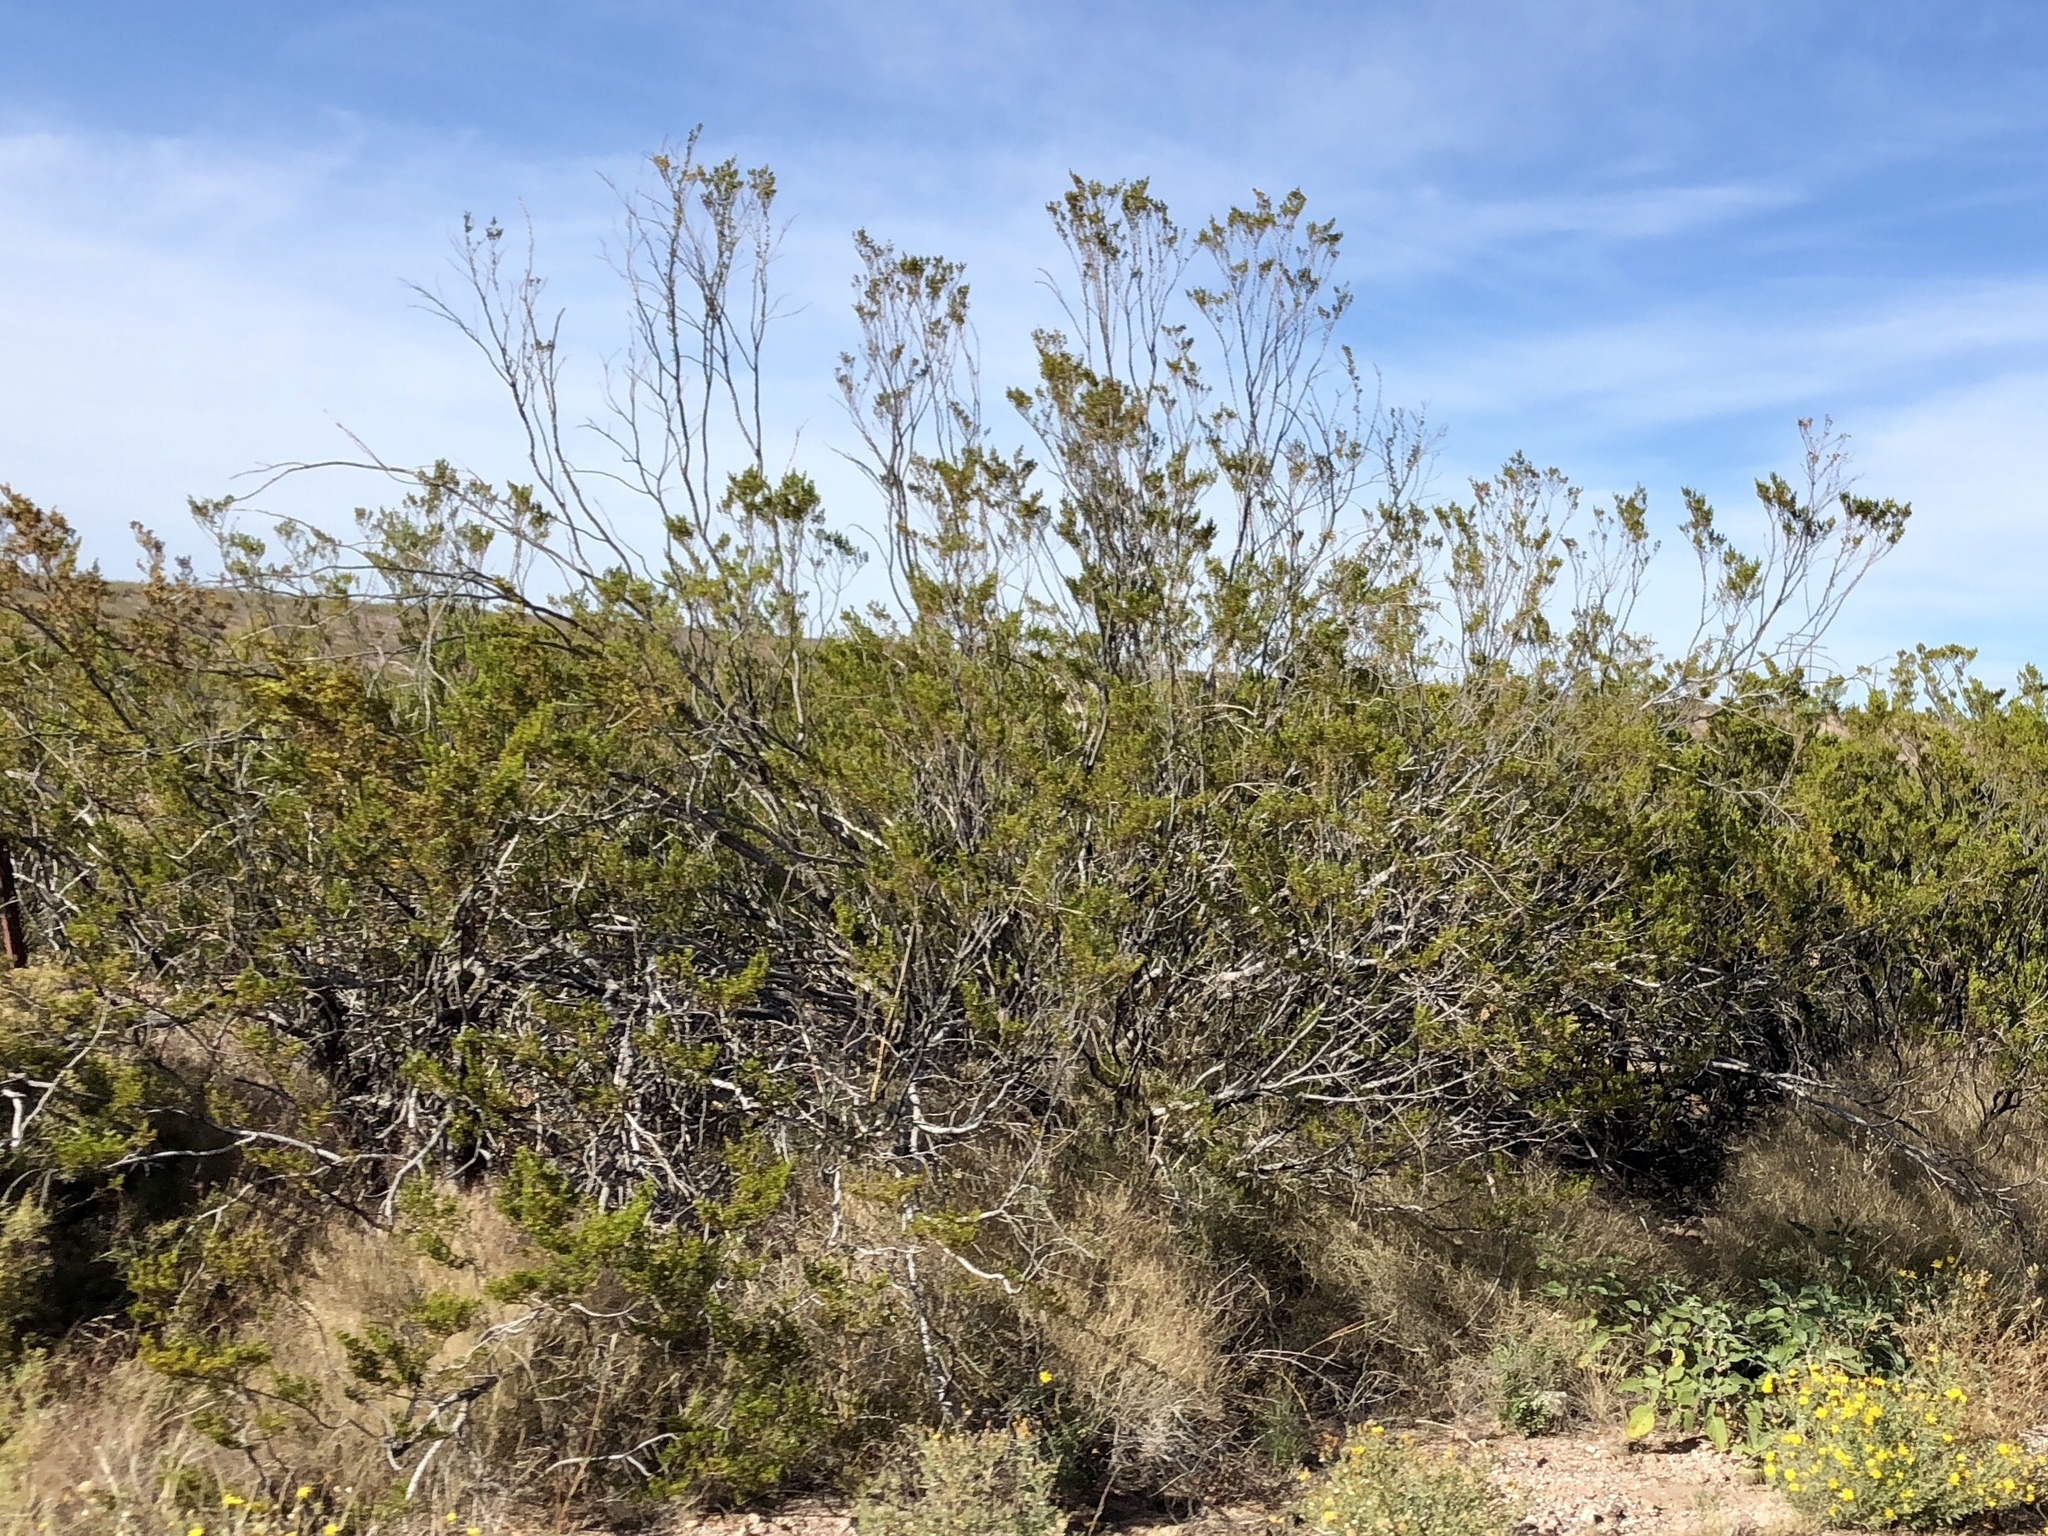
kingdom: Plantae
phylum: Tracheophyta
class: Magnoliopsida
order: Zygophyllales
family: Zygophyllaceae
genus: Larrea
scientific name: Larrea tridentata
